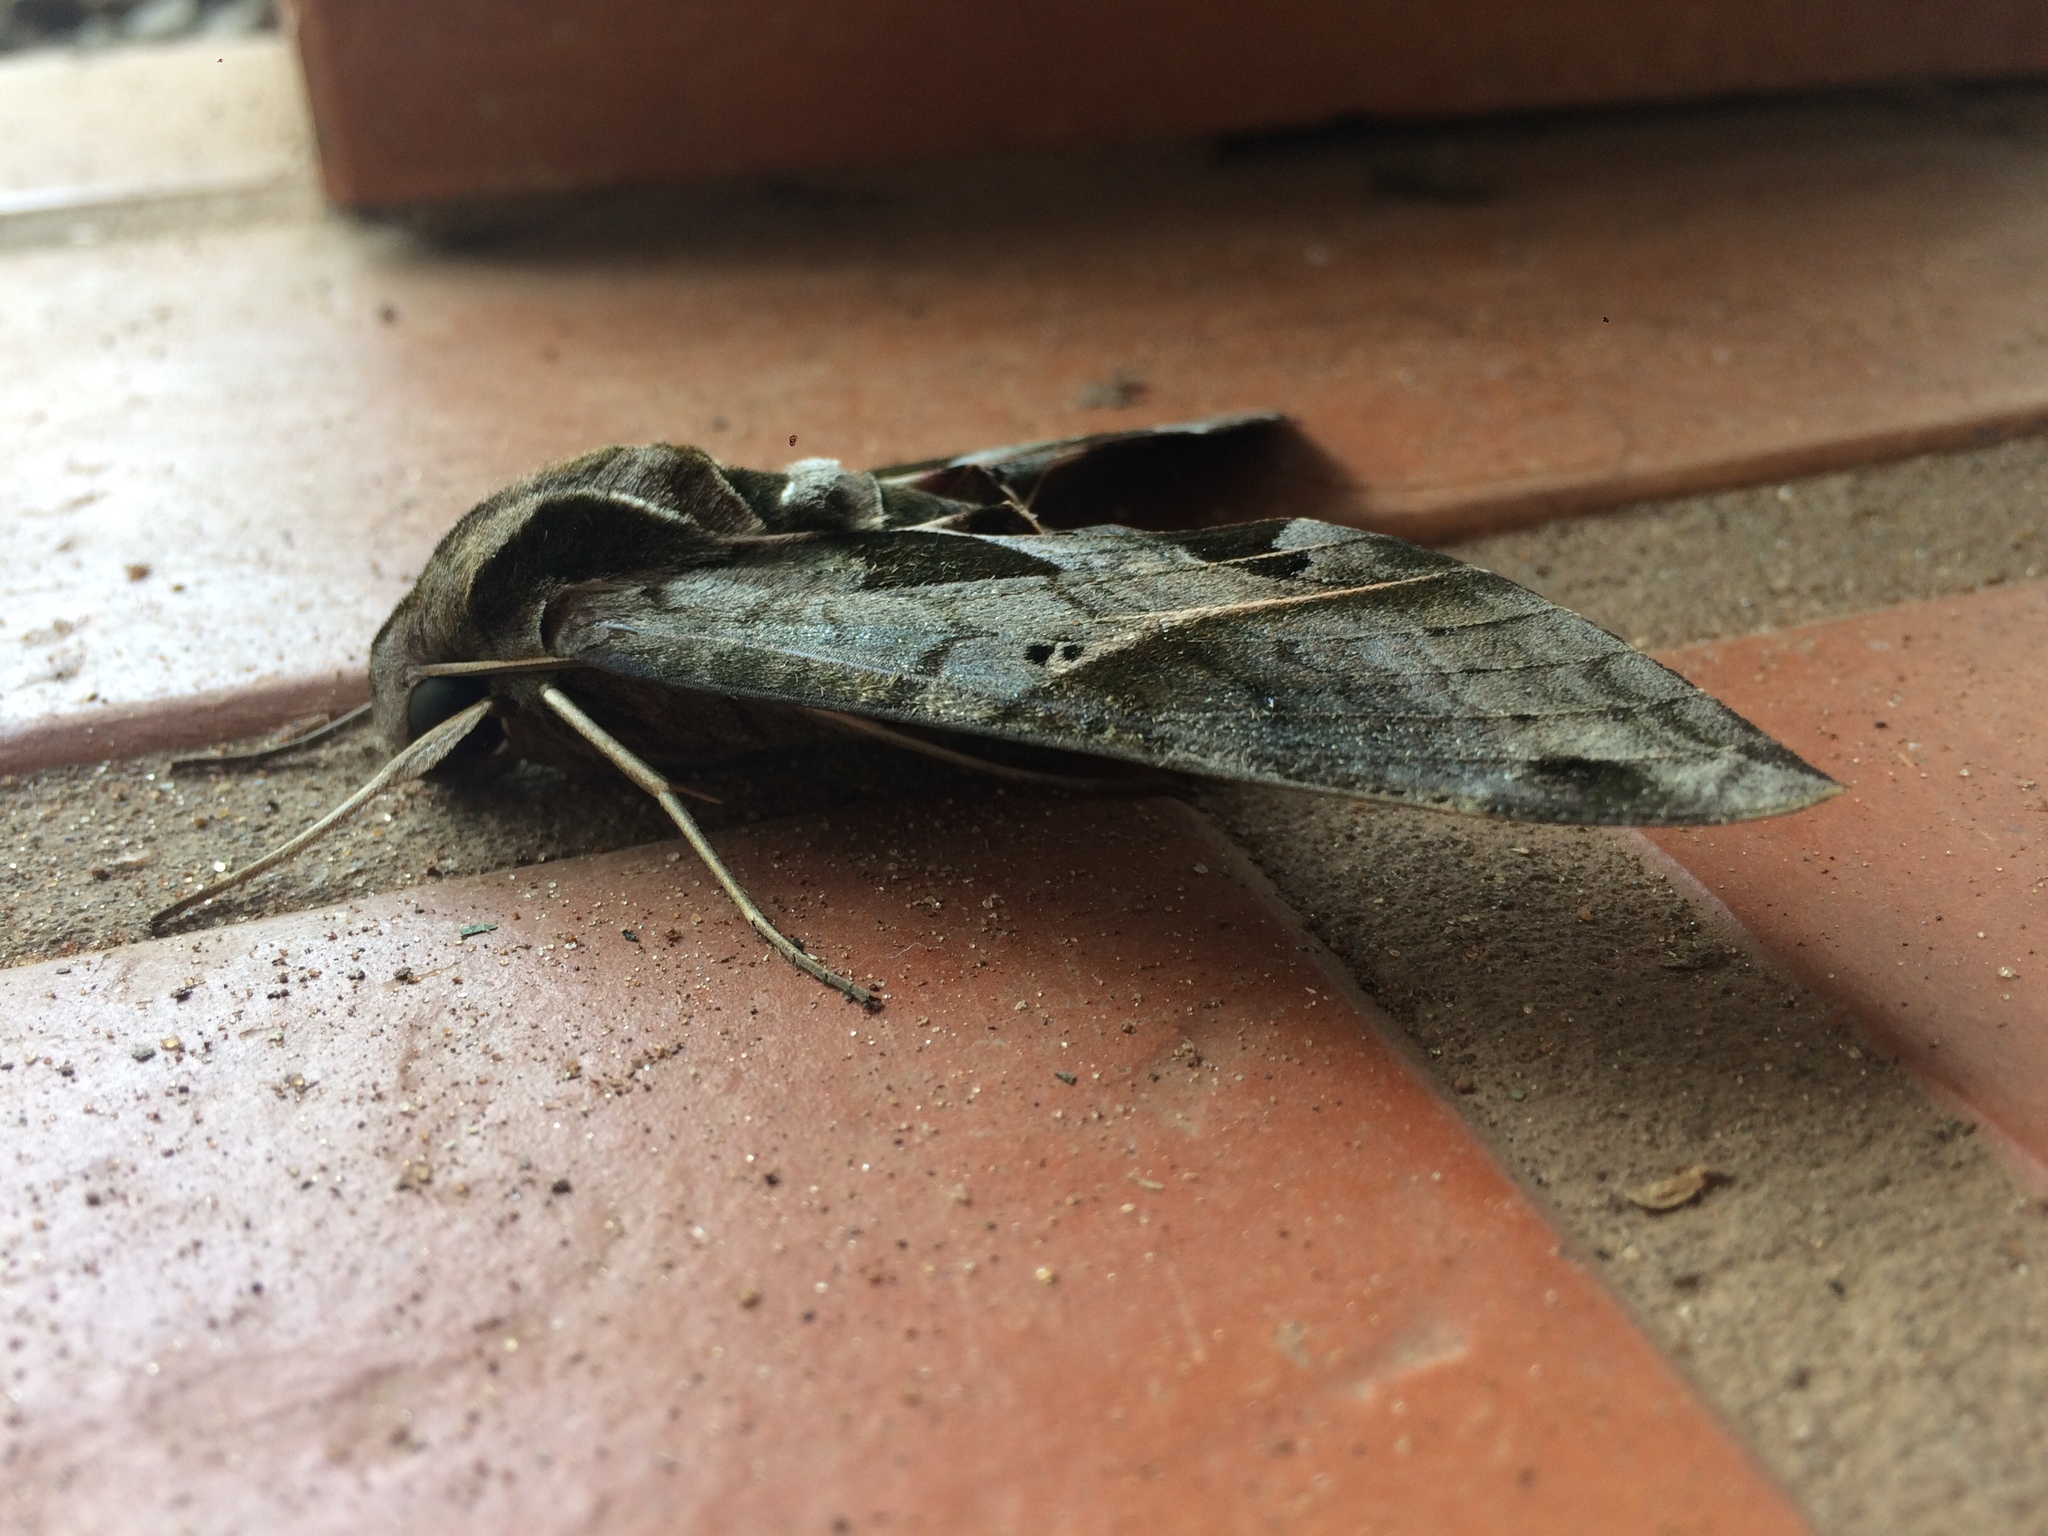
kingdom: Animalia
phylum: Arthropoda
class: Insecta
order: Lepidoptera
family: Sphingidae
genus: Eumorpha
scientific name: Eumorpha analis
